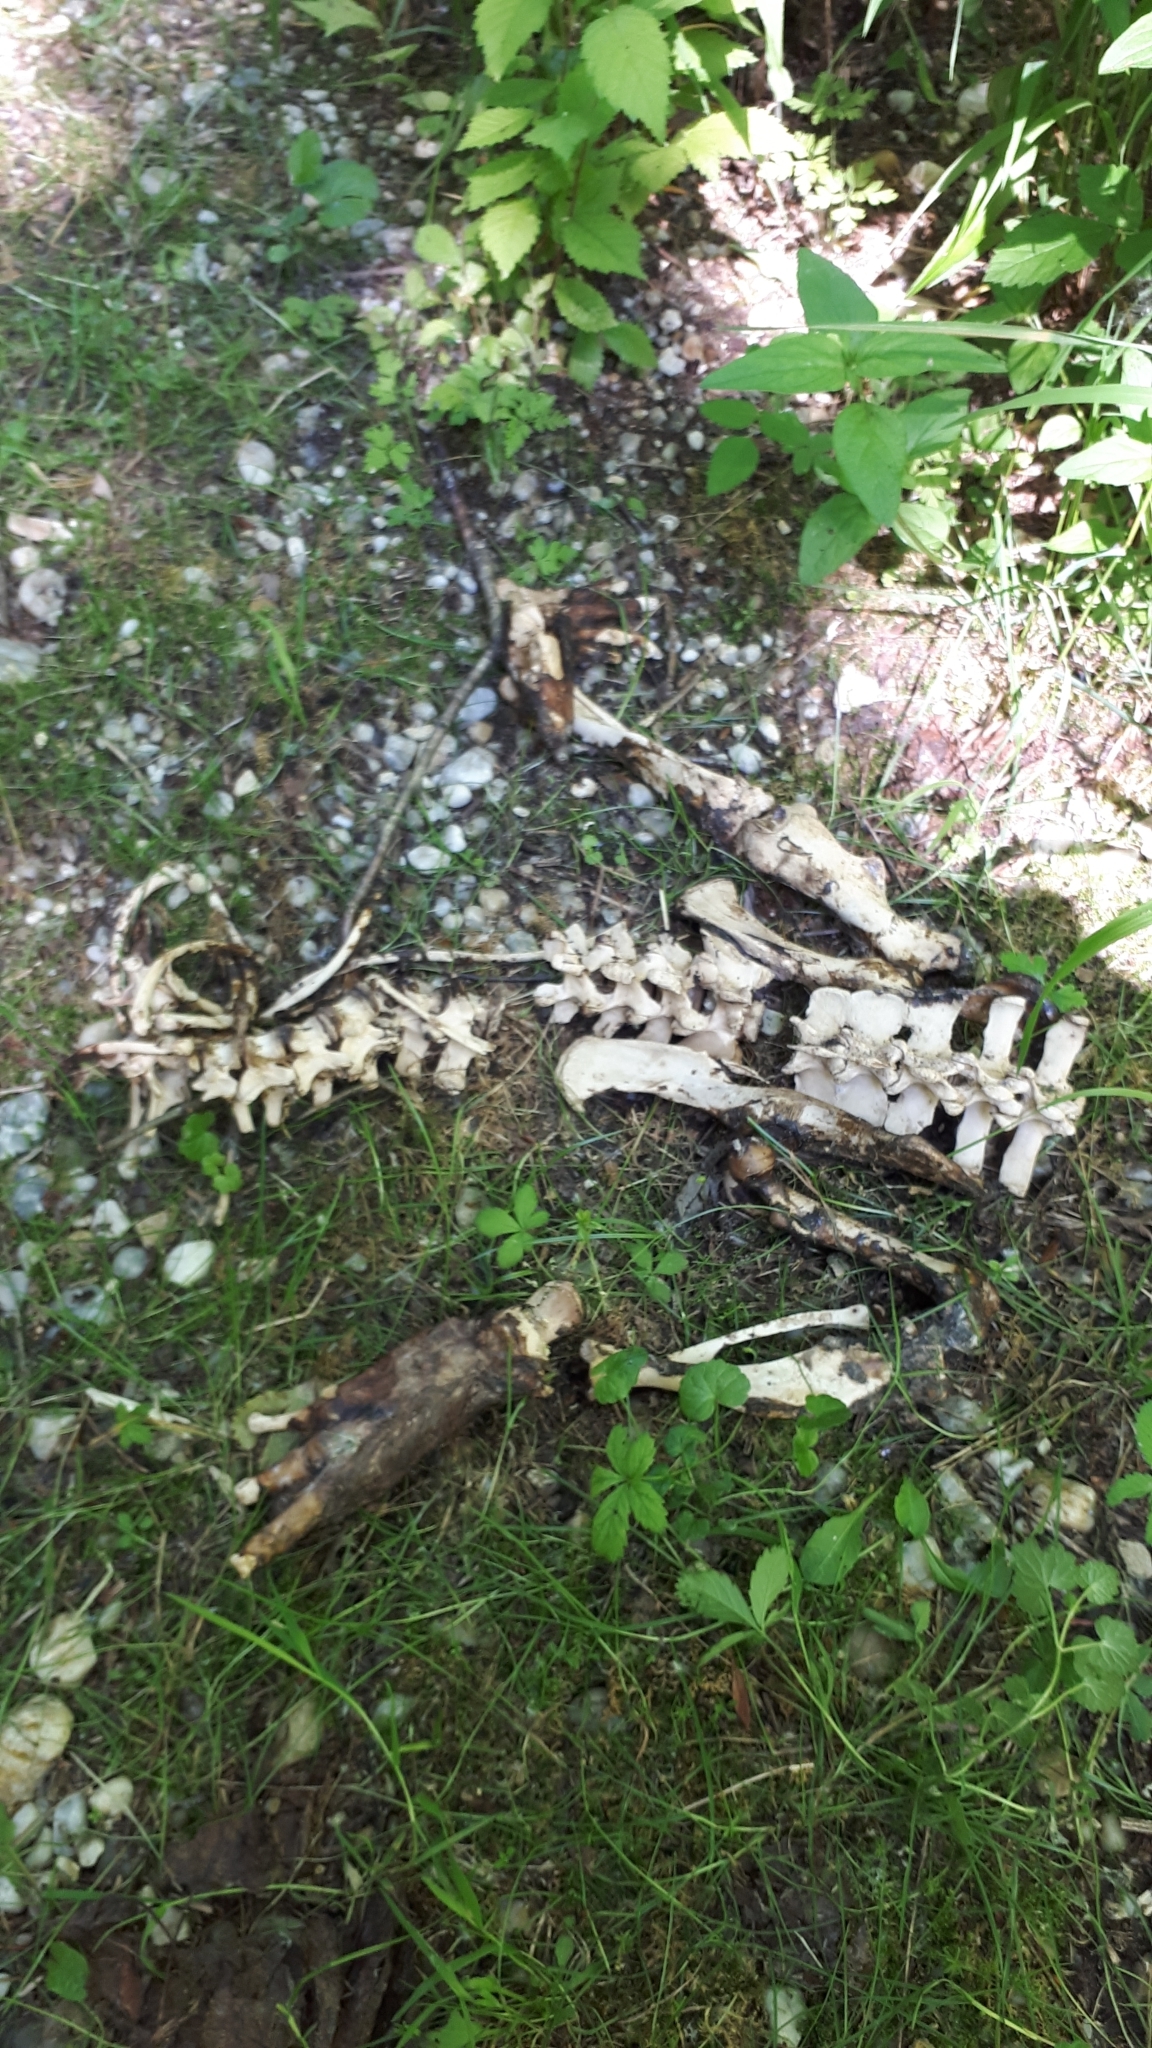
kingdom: Animalia
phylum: Chordata
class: Mammalia
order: Rodentia
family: Castoridae
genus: Castor
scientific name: Castor fiber
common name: Eurasian beaver
